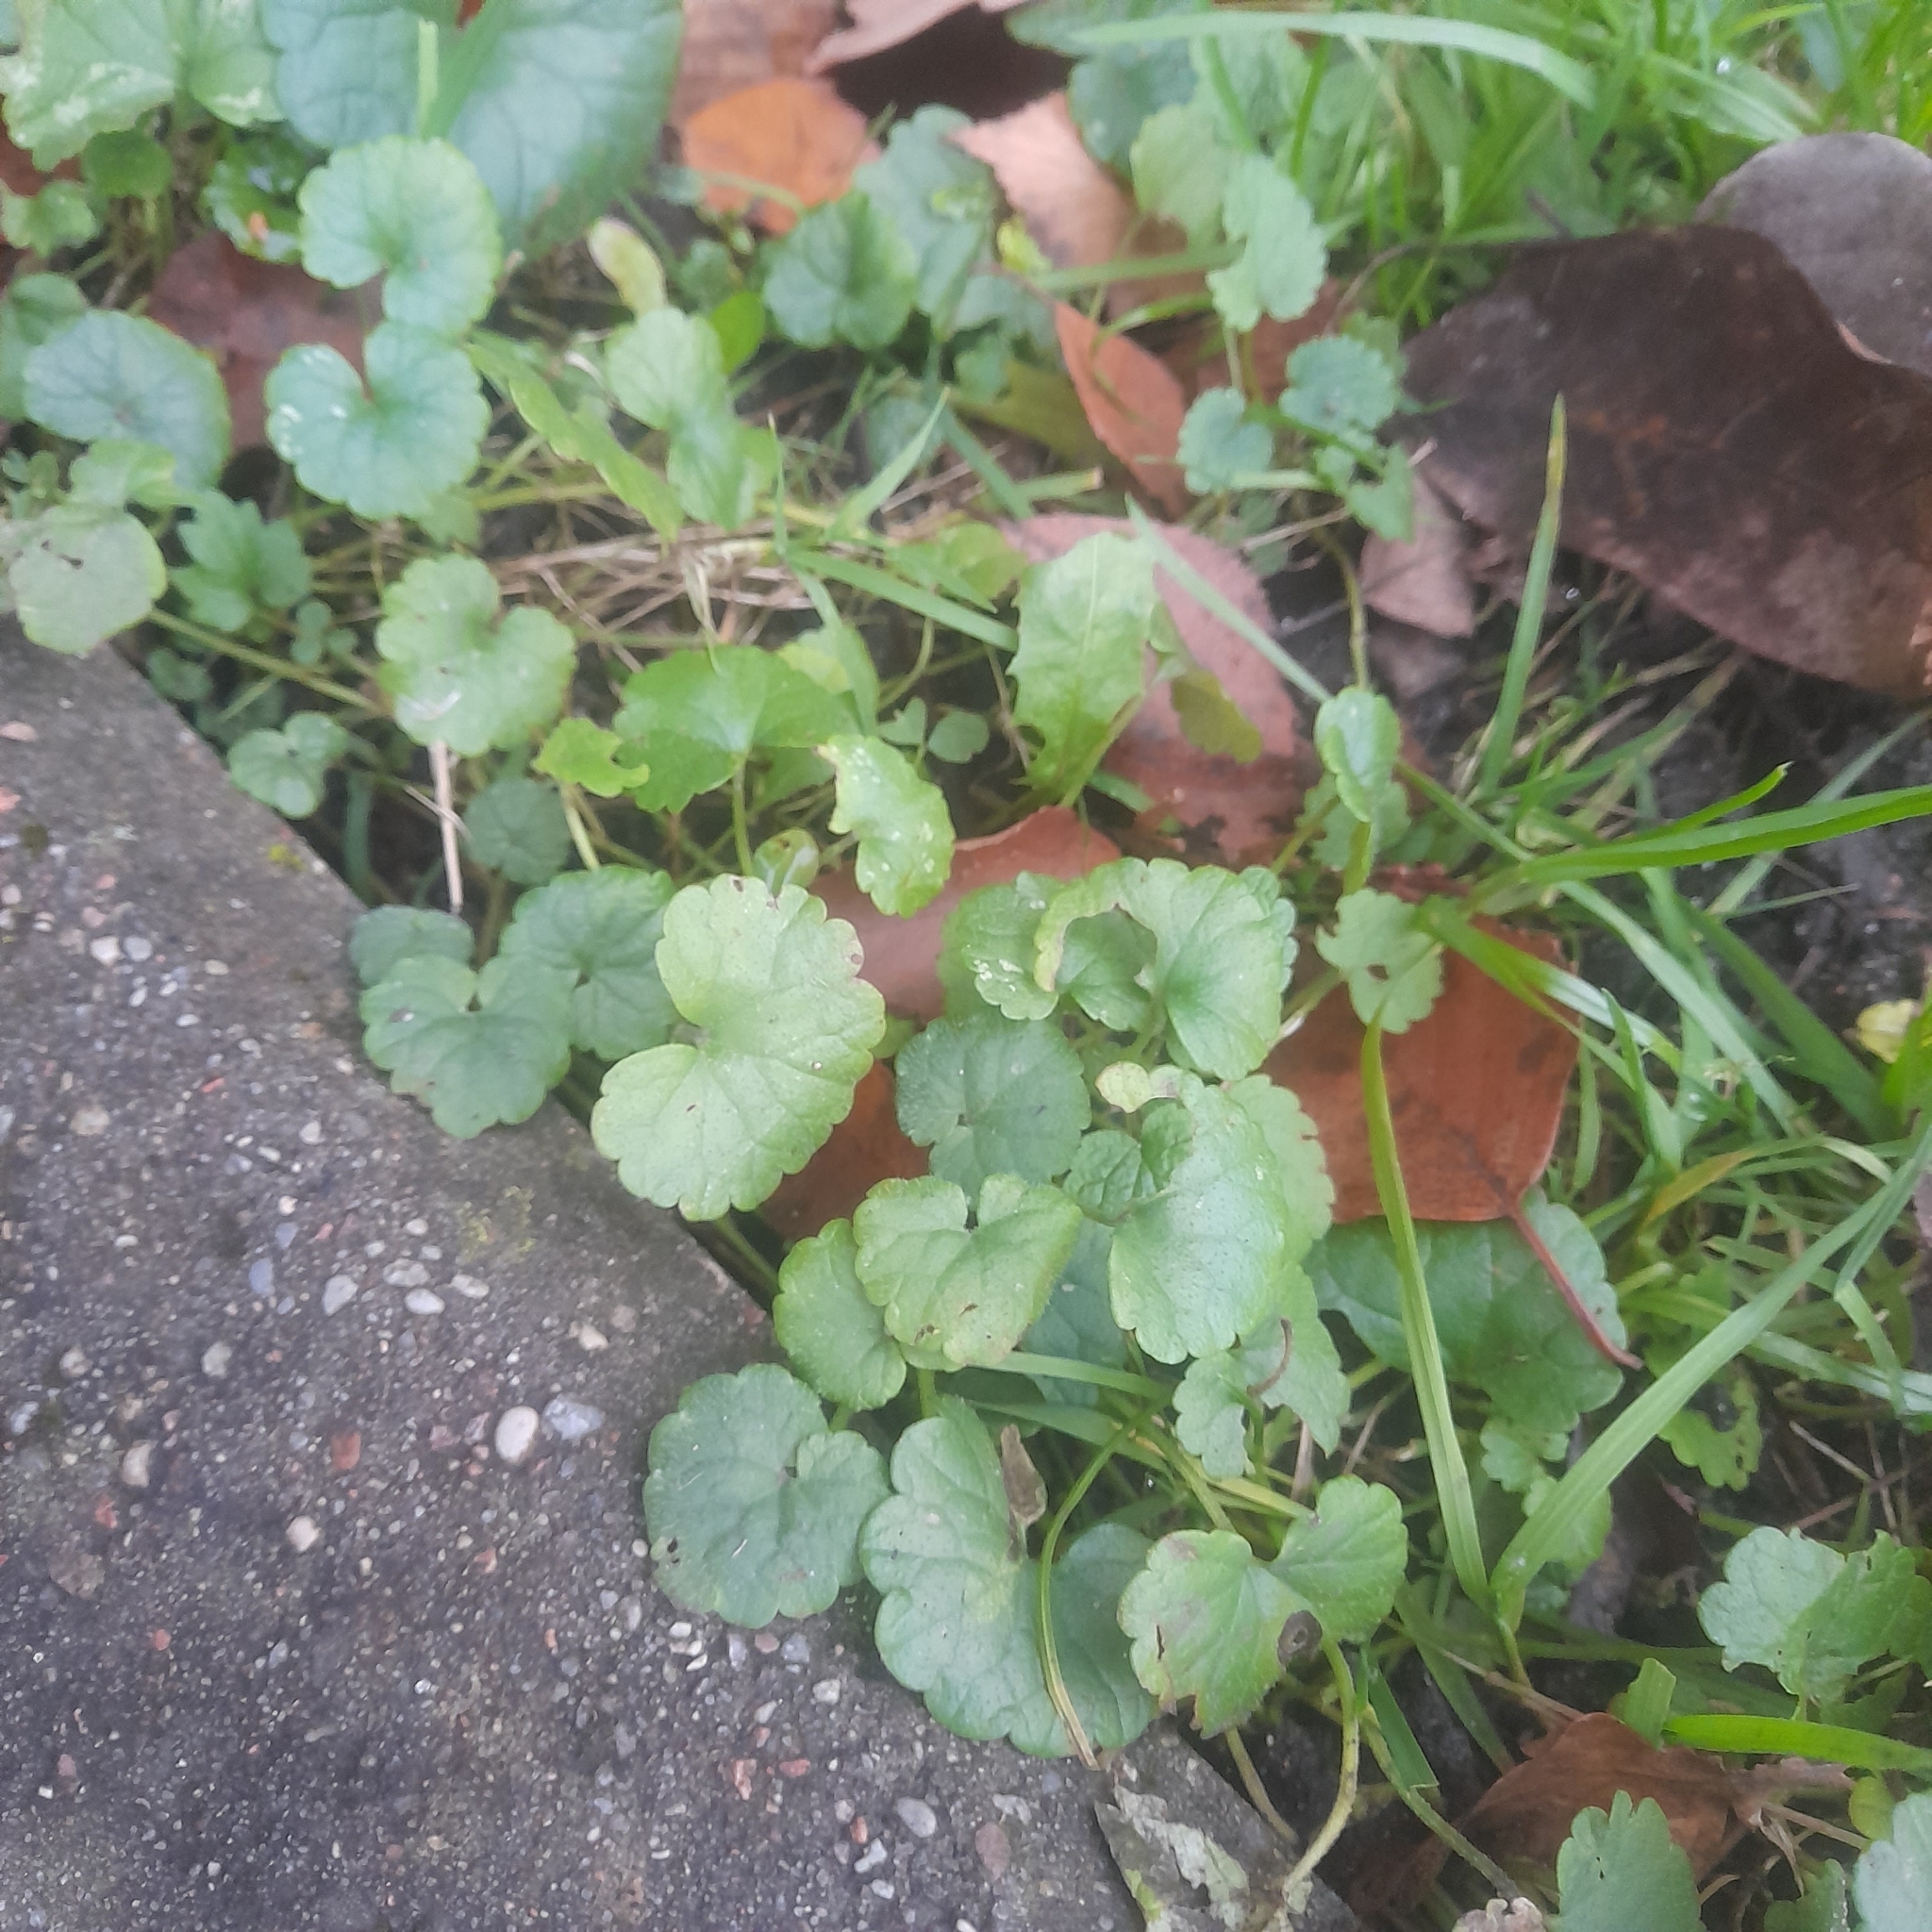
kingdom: Plantae
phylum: Tracheophyta
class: Magnoliopsida
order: Lamiales
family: Lamiaceae
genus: Glechoma
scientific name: Glechoma hederacea
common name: Ground ivy
